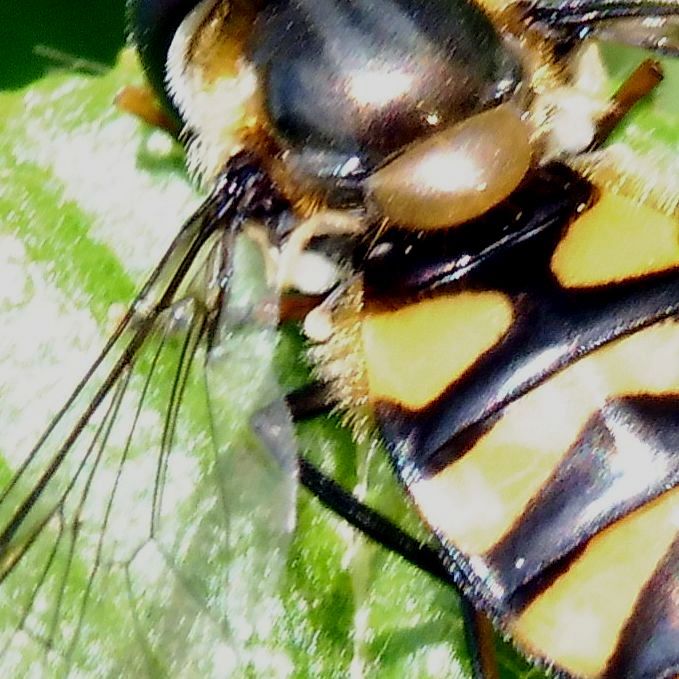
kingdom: Animalia
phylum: Arthropoda
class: Insecta
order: Diptera
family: Syrphidae
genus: Didea
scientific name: Didea fasciata
